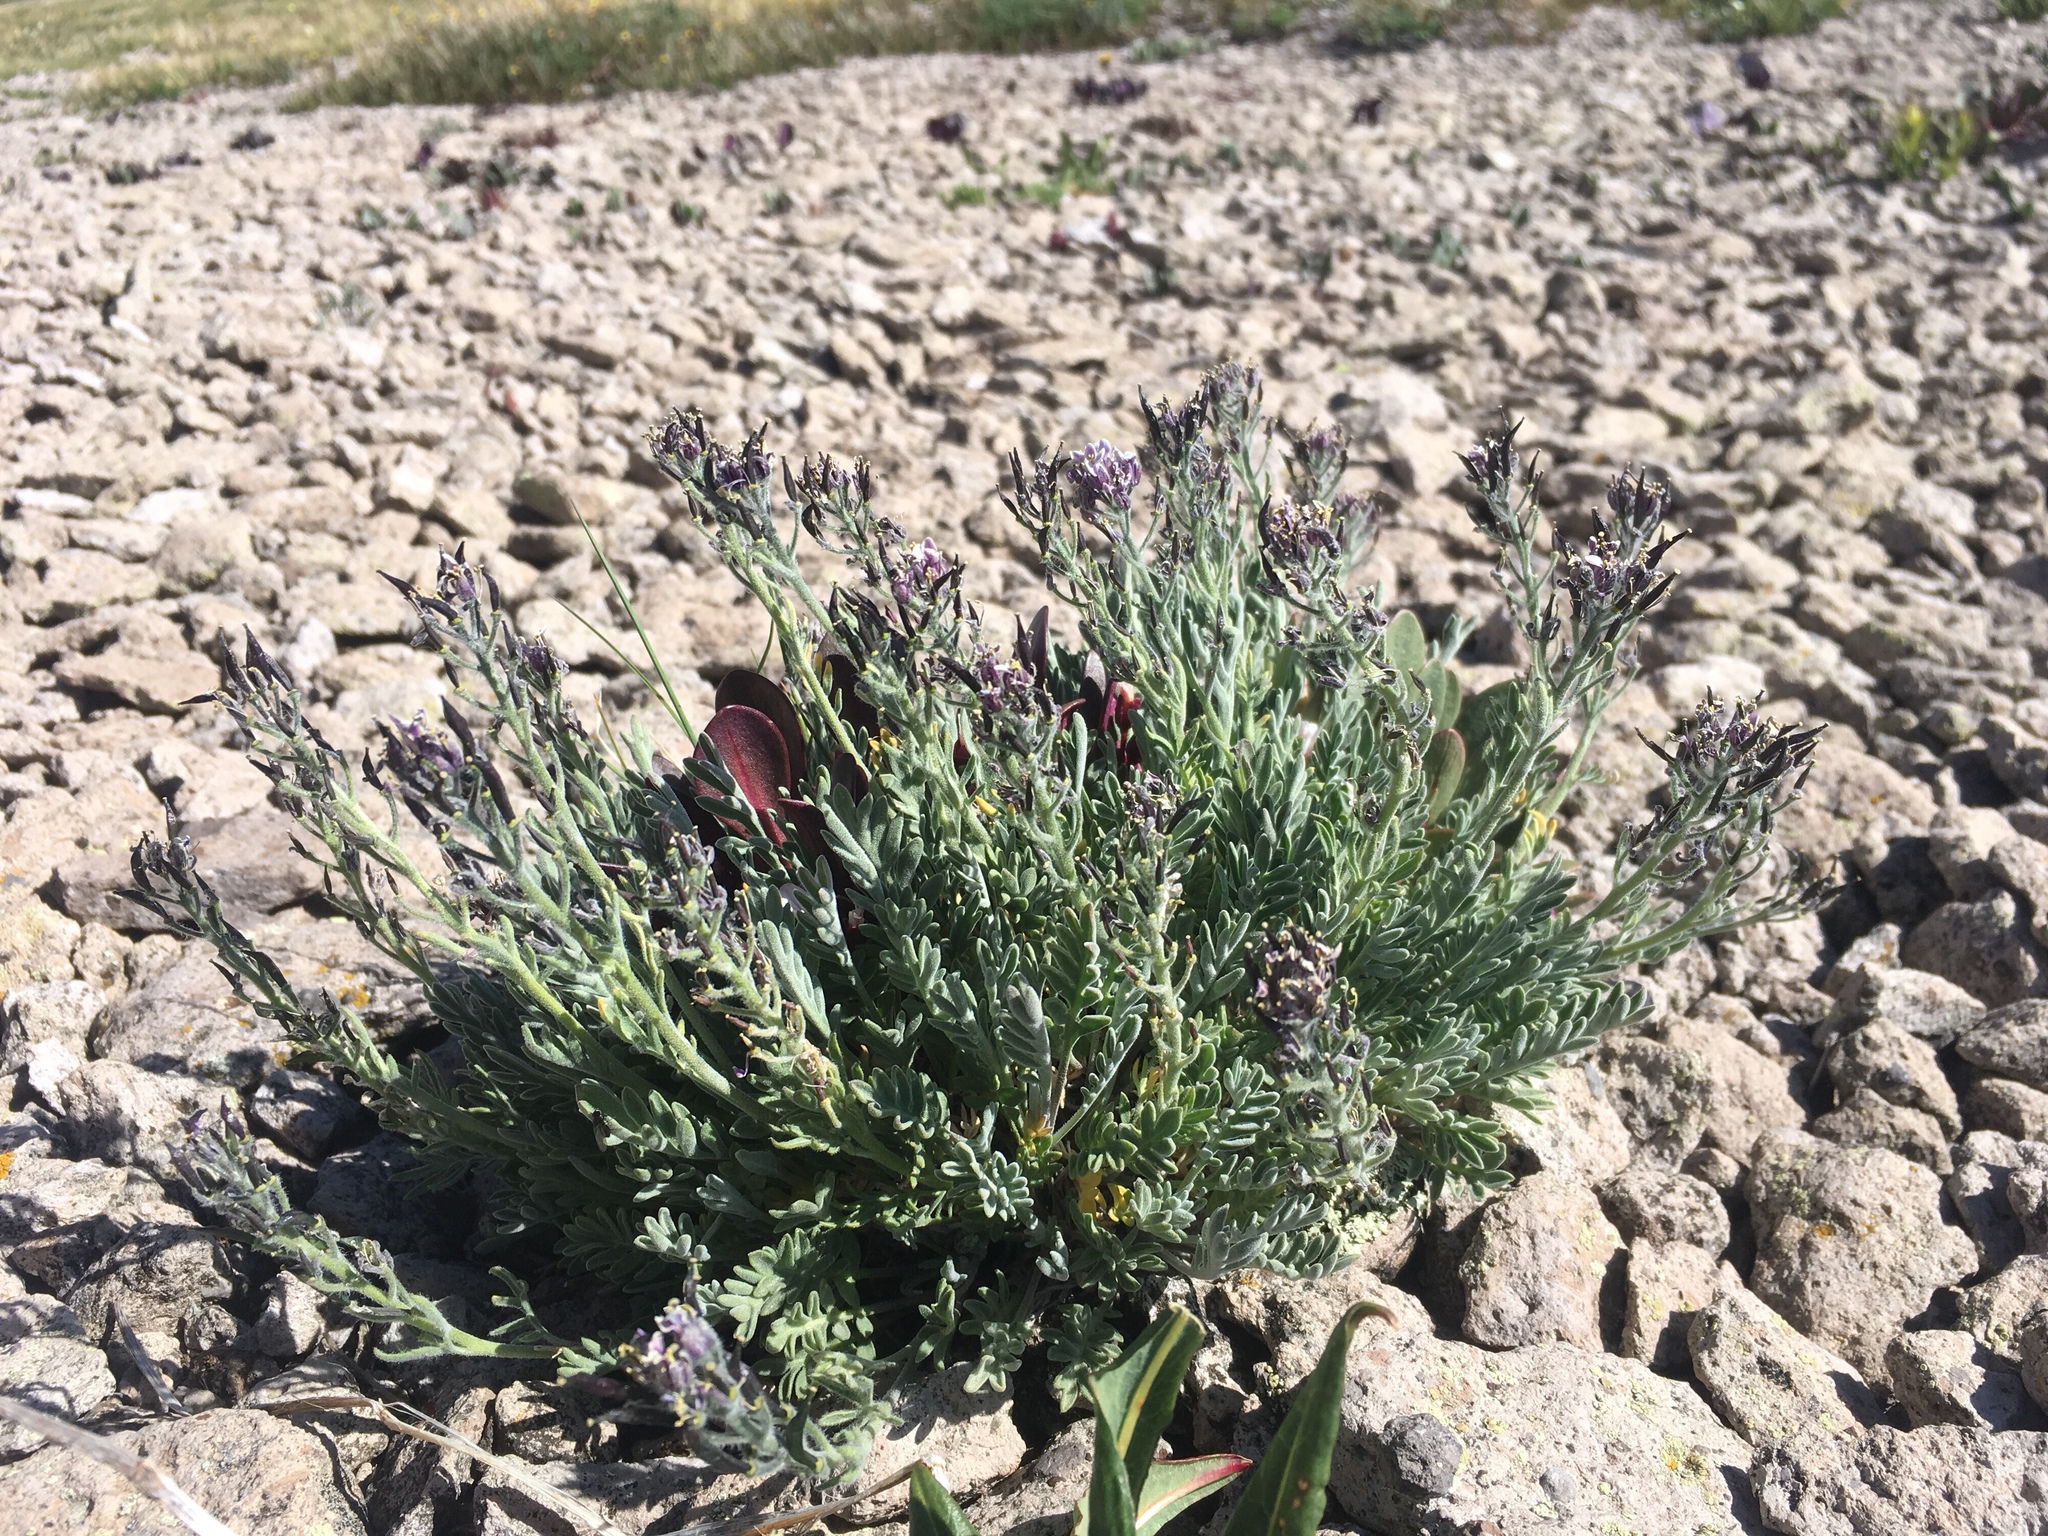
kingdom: Plantae
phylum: Tracheophyta
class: Magnoliopsida
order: Brassicales
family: Brassicaceae
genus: Smelowskia
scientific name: Smelowskia americana
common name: American false candytuft
